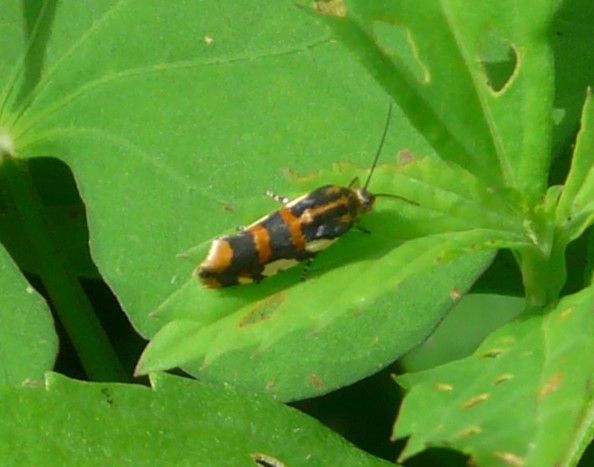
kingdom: Animalia
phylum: Arthropoda
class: Insecta
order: Lepidoptera
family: Noctuidae
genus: Acontia
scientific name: Acontia dama
